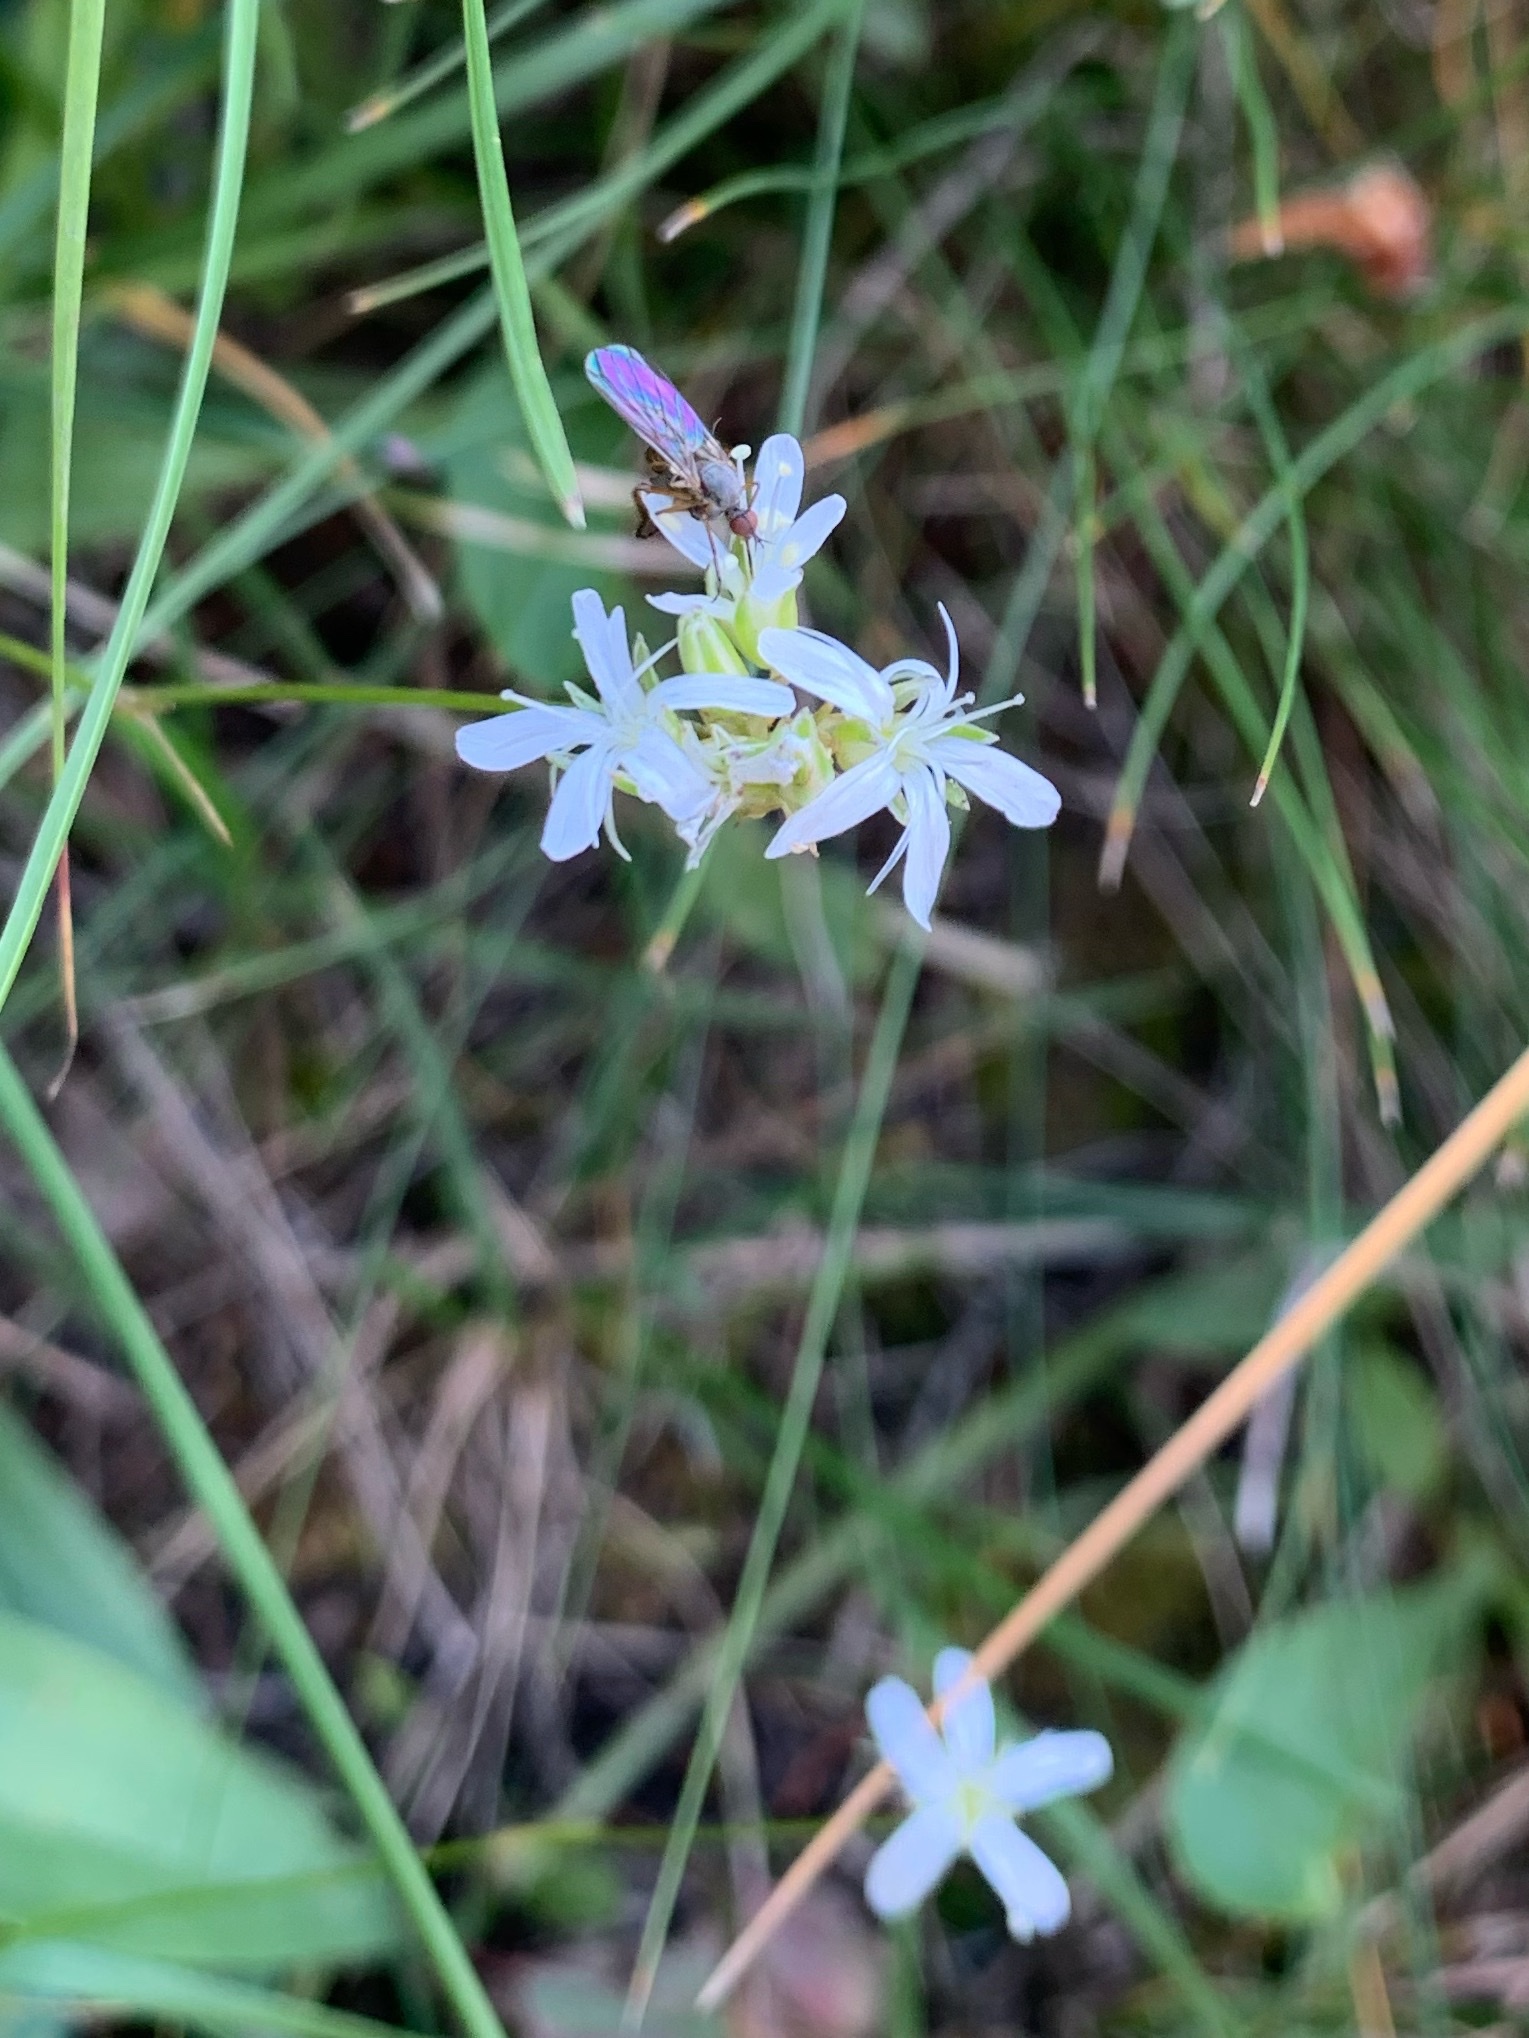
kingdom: Plantae
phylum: Tracheophyta
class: Magnoliopsida
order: Caryophyllales
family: Caryophyllaceae
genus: Eremogone
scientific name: Eremogone congesta
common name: Ballhead sandwort
